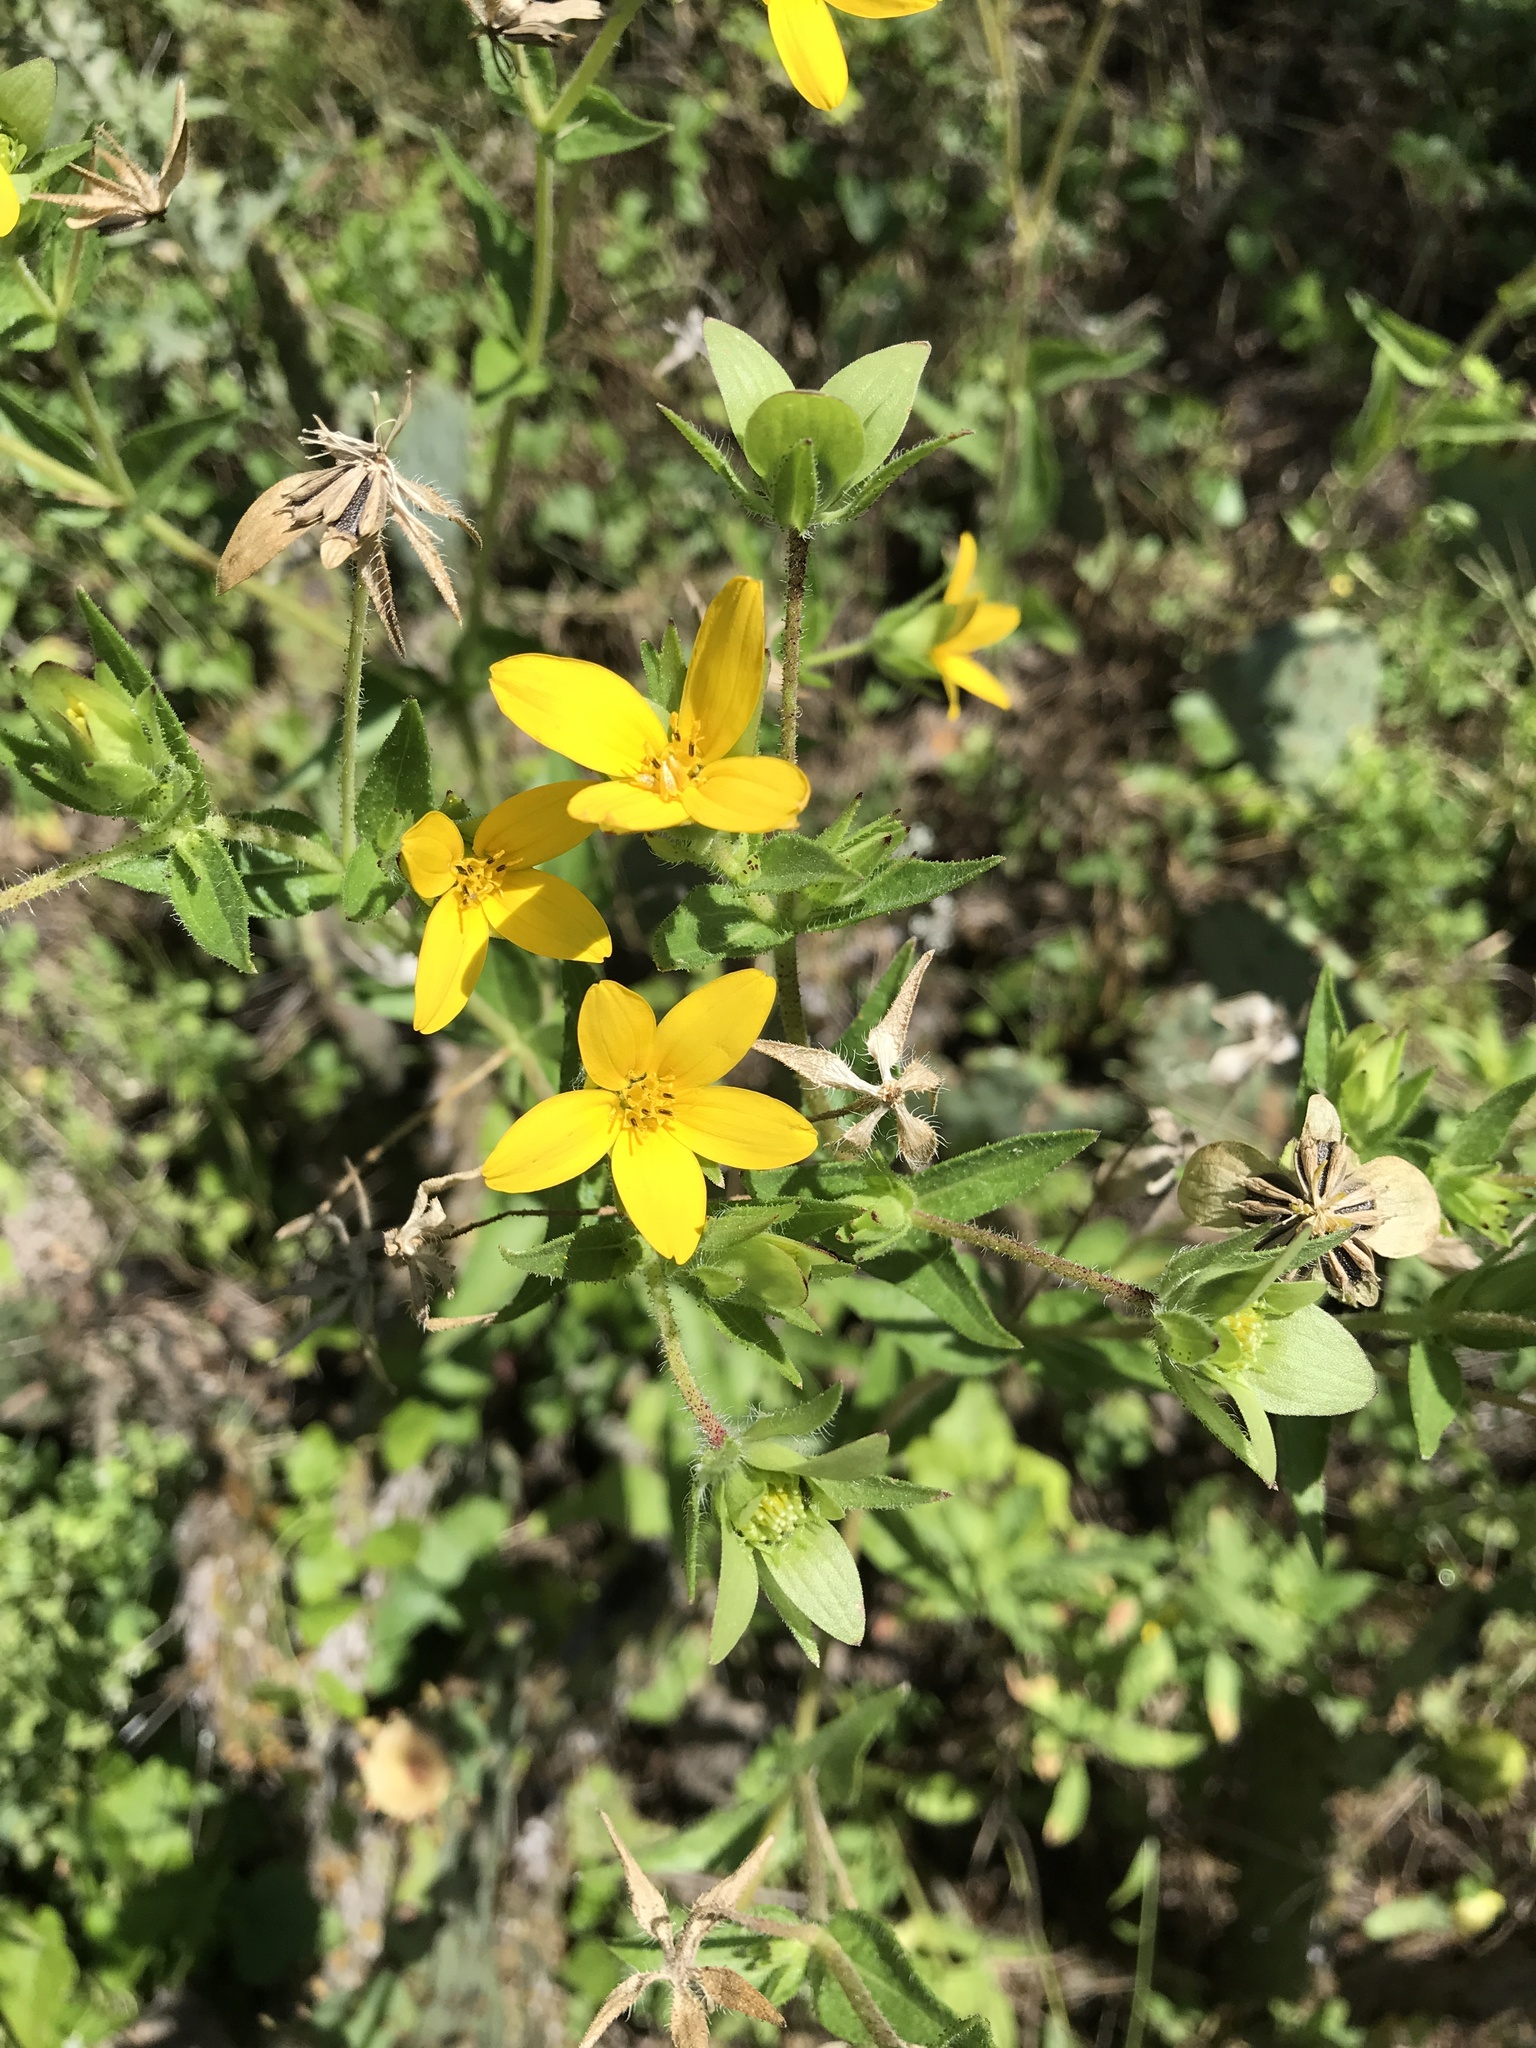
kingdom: Plantae
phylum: Tracheophyta
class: Magnoliopsida
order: Asterales
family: Asteraceae
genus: Lindheimera
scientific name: Lindheimera texana
